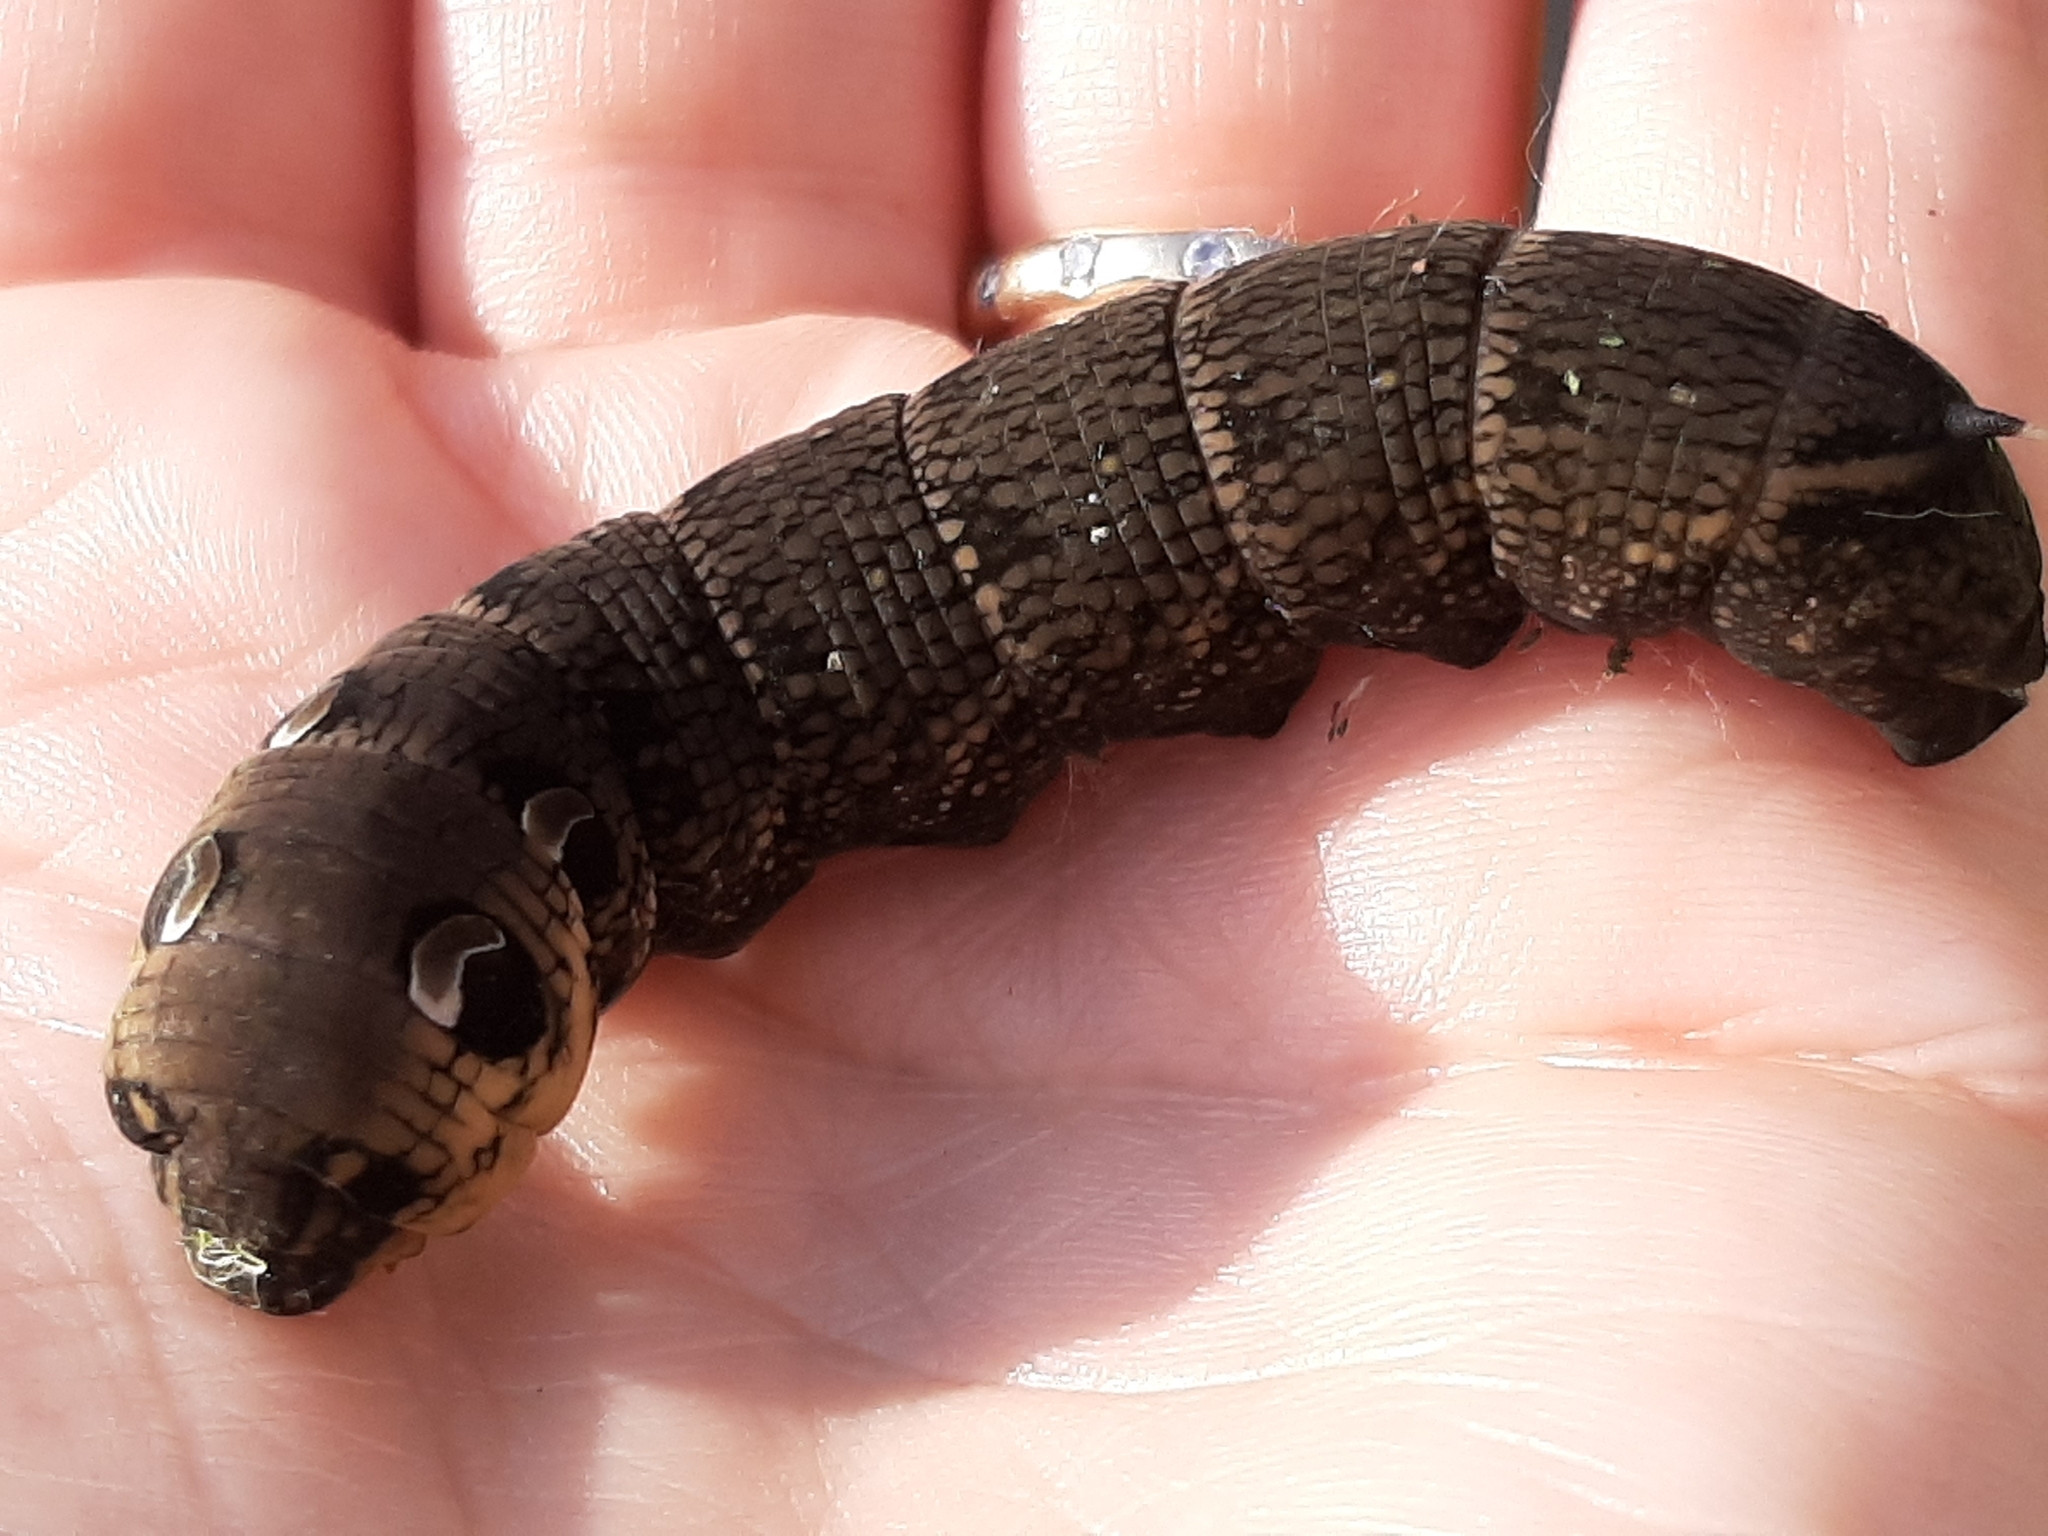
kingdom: Animalia
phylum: Arthropoda
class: Insecta
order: Lepidoptera
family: Sphingidae
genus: Deilephila
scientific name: Deilephila elpenor
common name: Elephant hawk-moth
